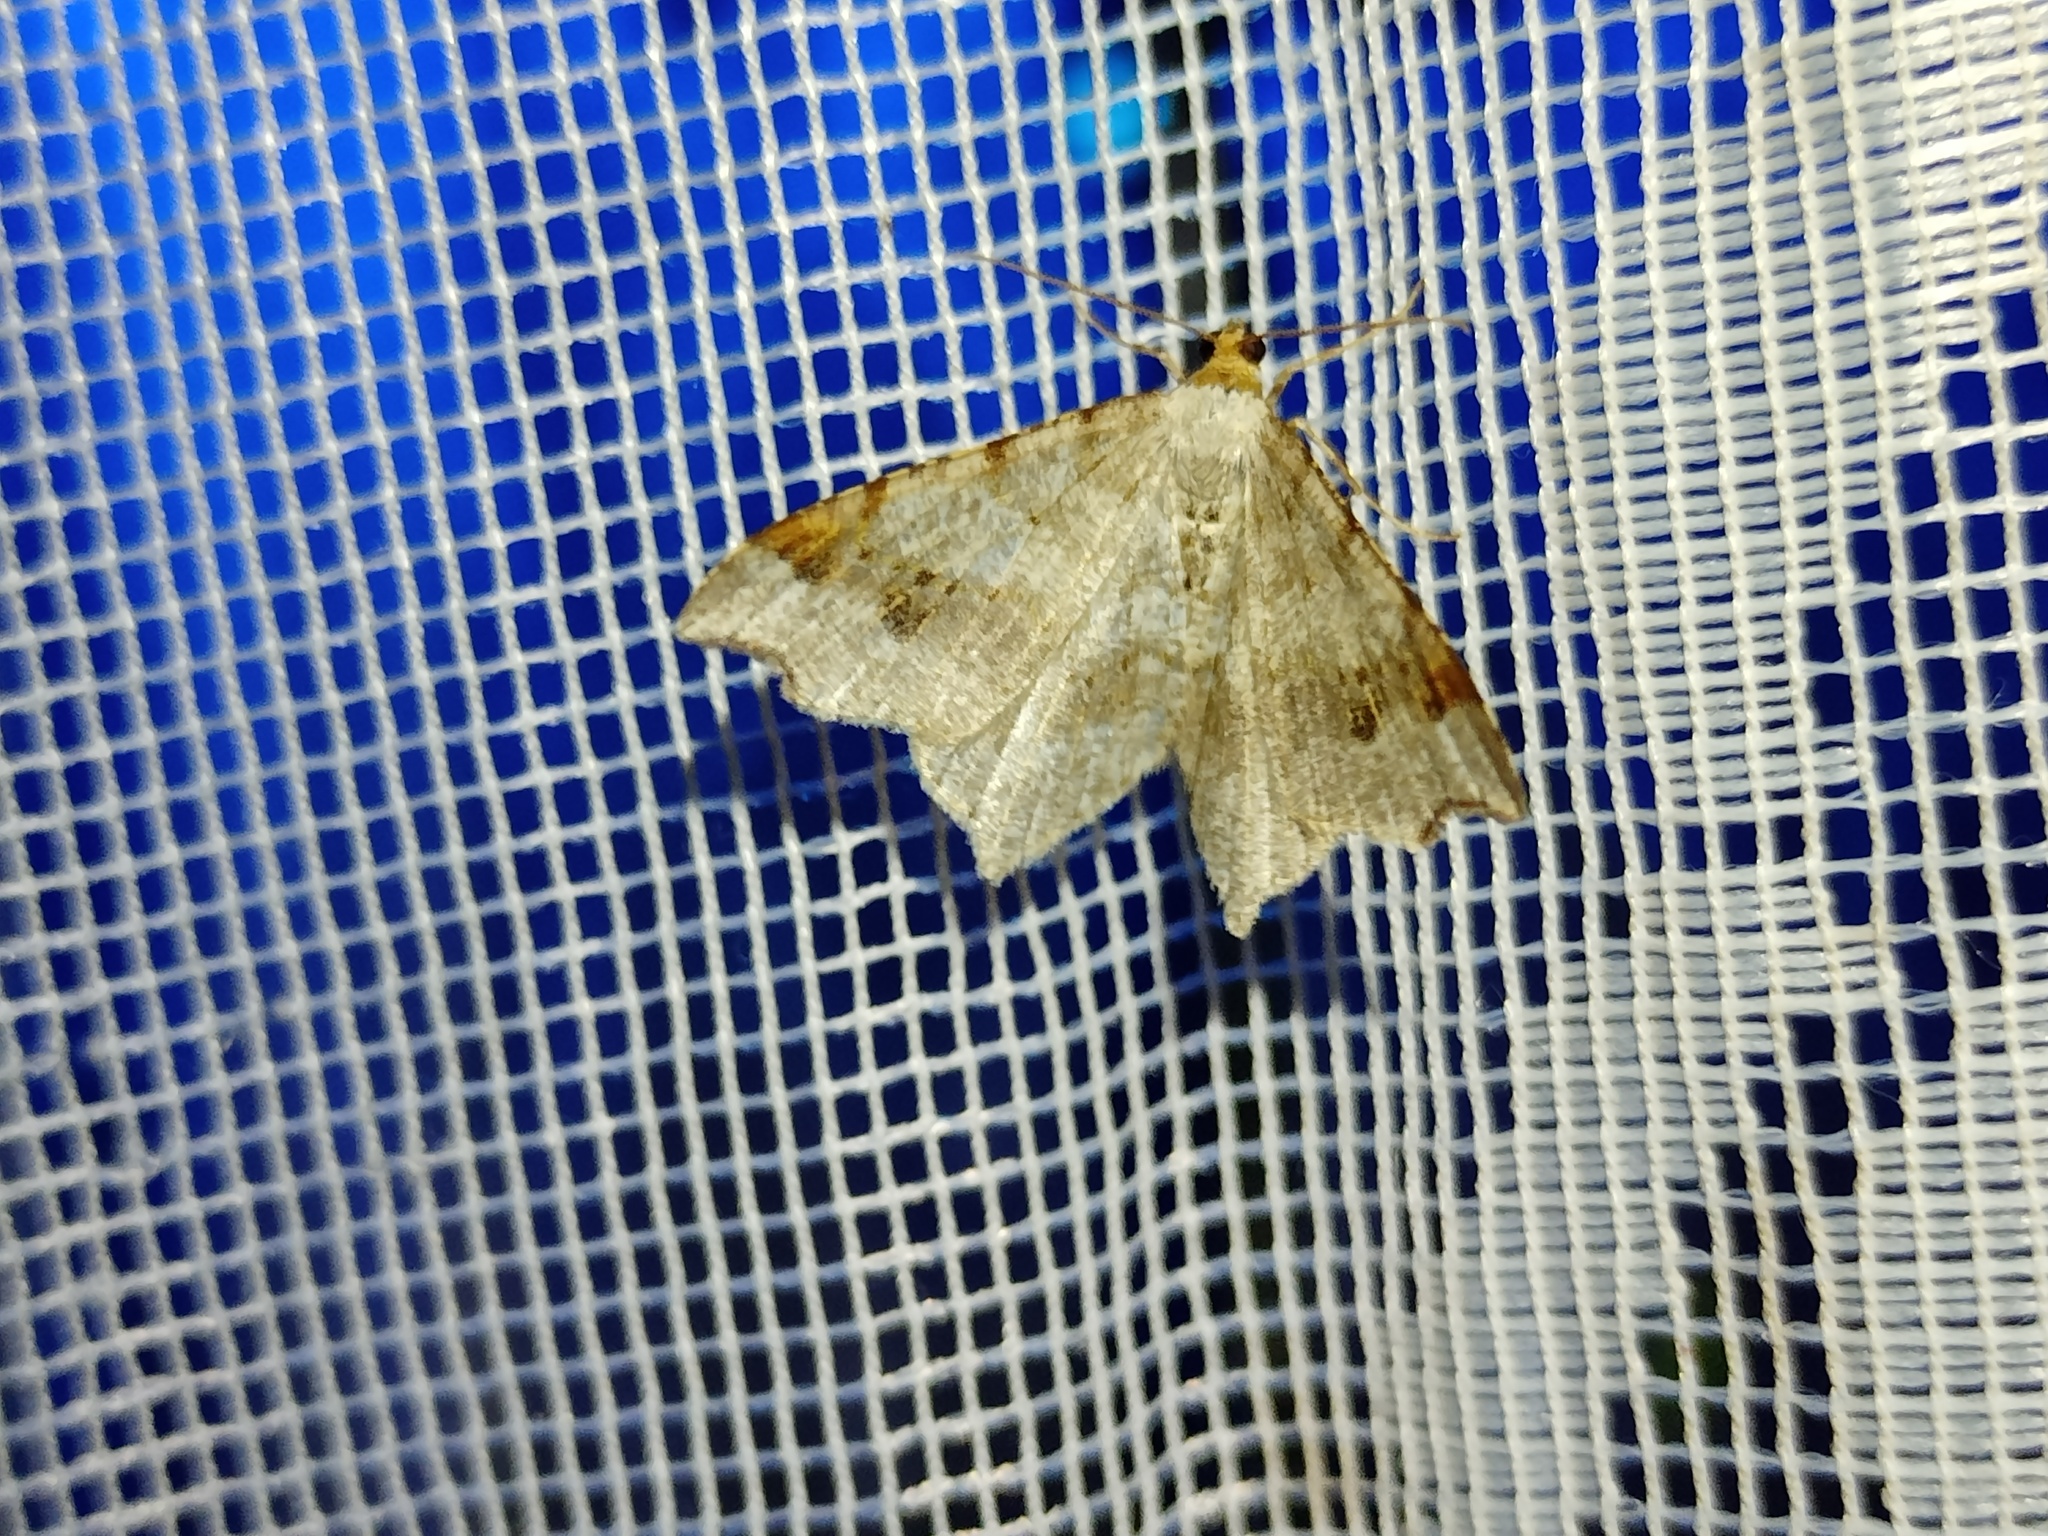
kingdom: Animalia
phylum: Arthropoda
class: Insecta
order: Lepidoptera
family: Geometridae
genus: Macaria
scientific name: Macaria alternata
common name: Sharp-angled peacock
